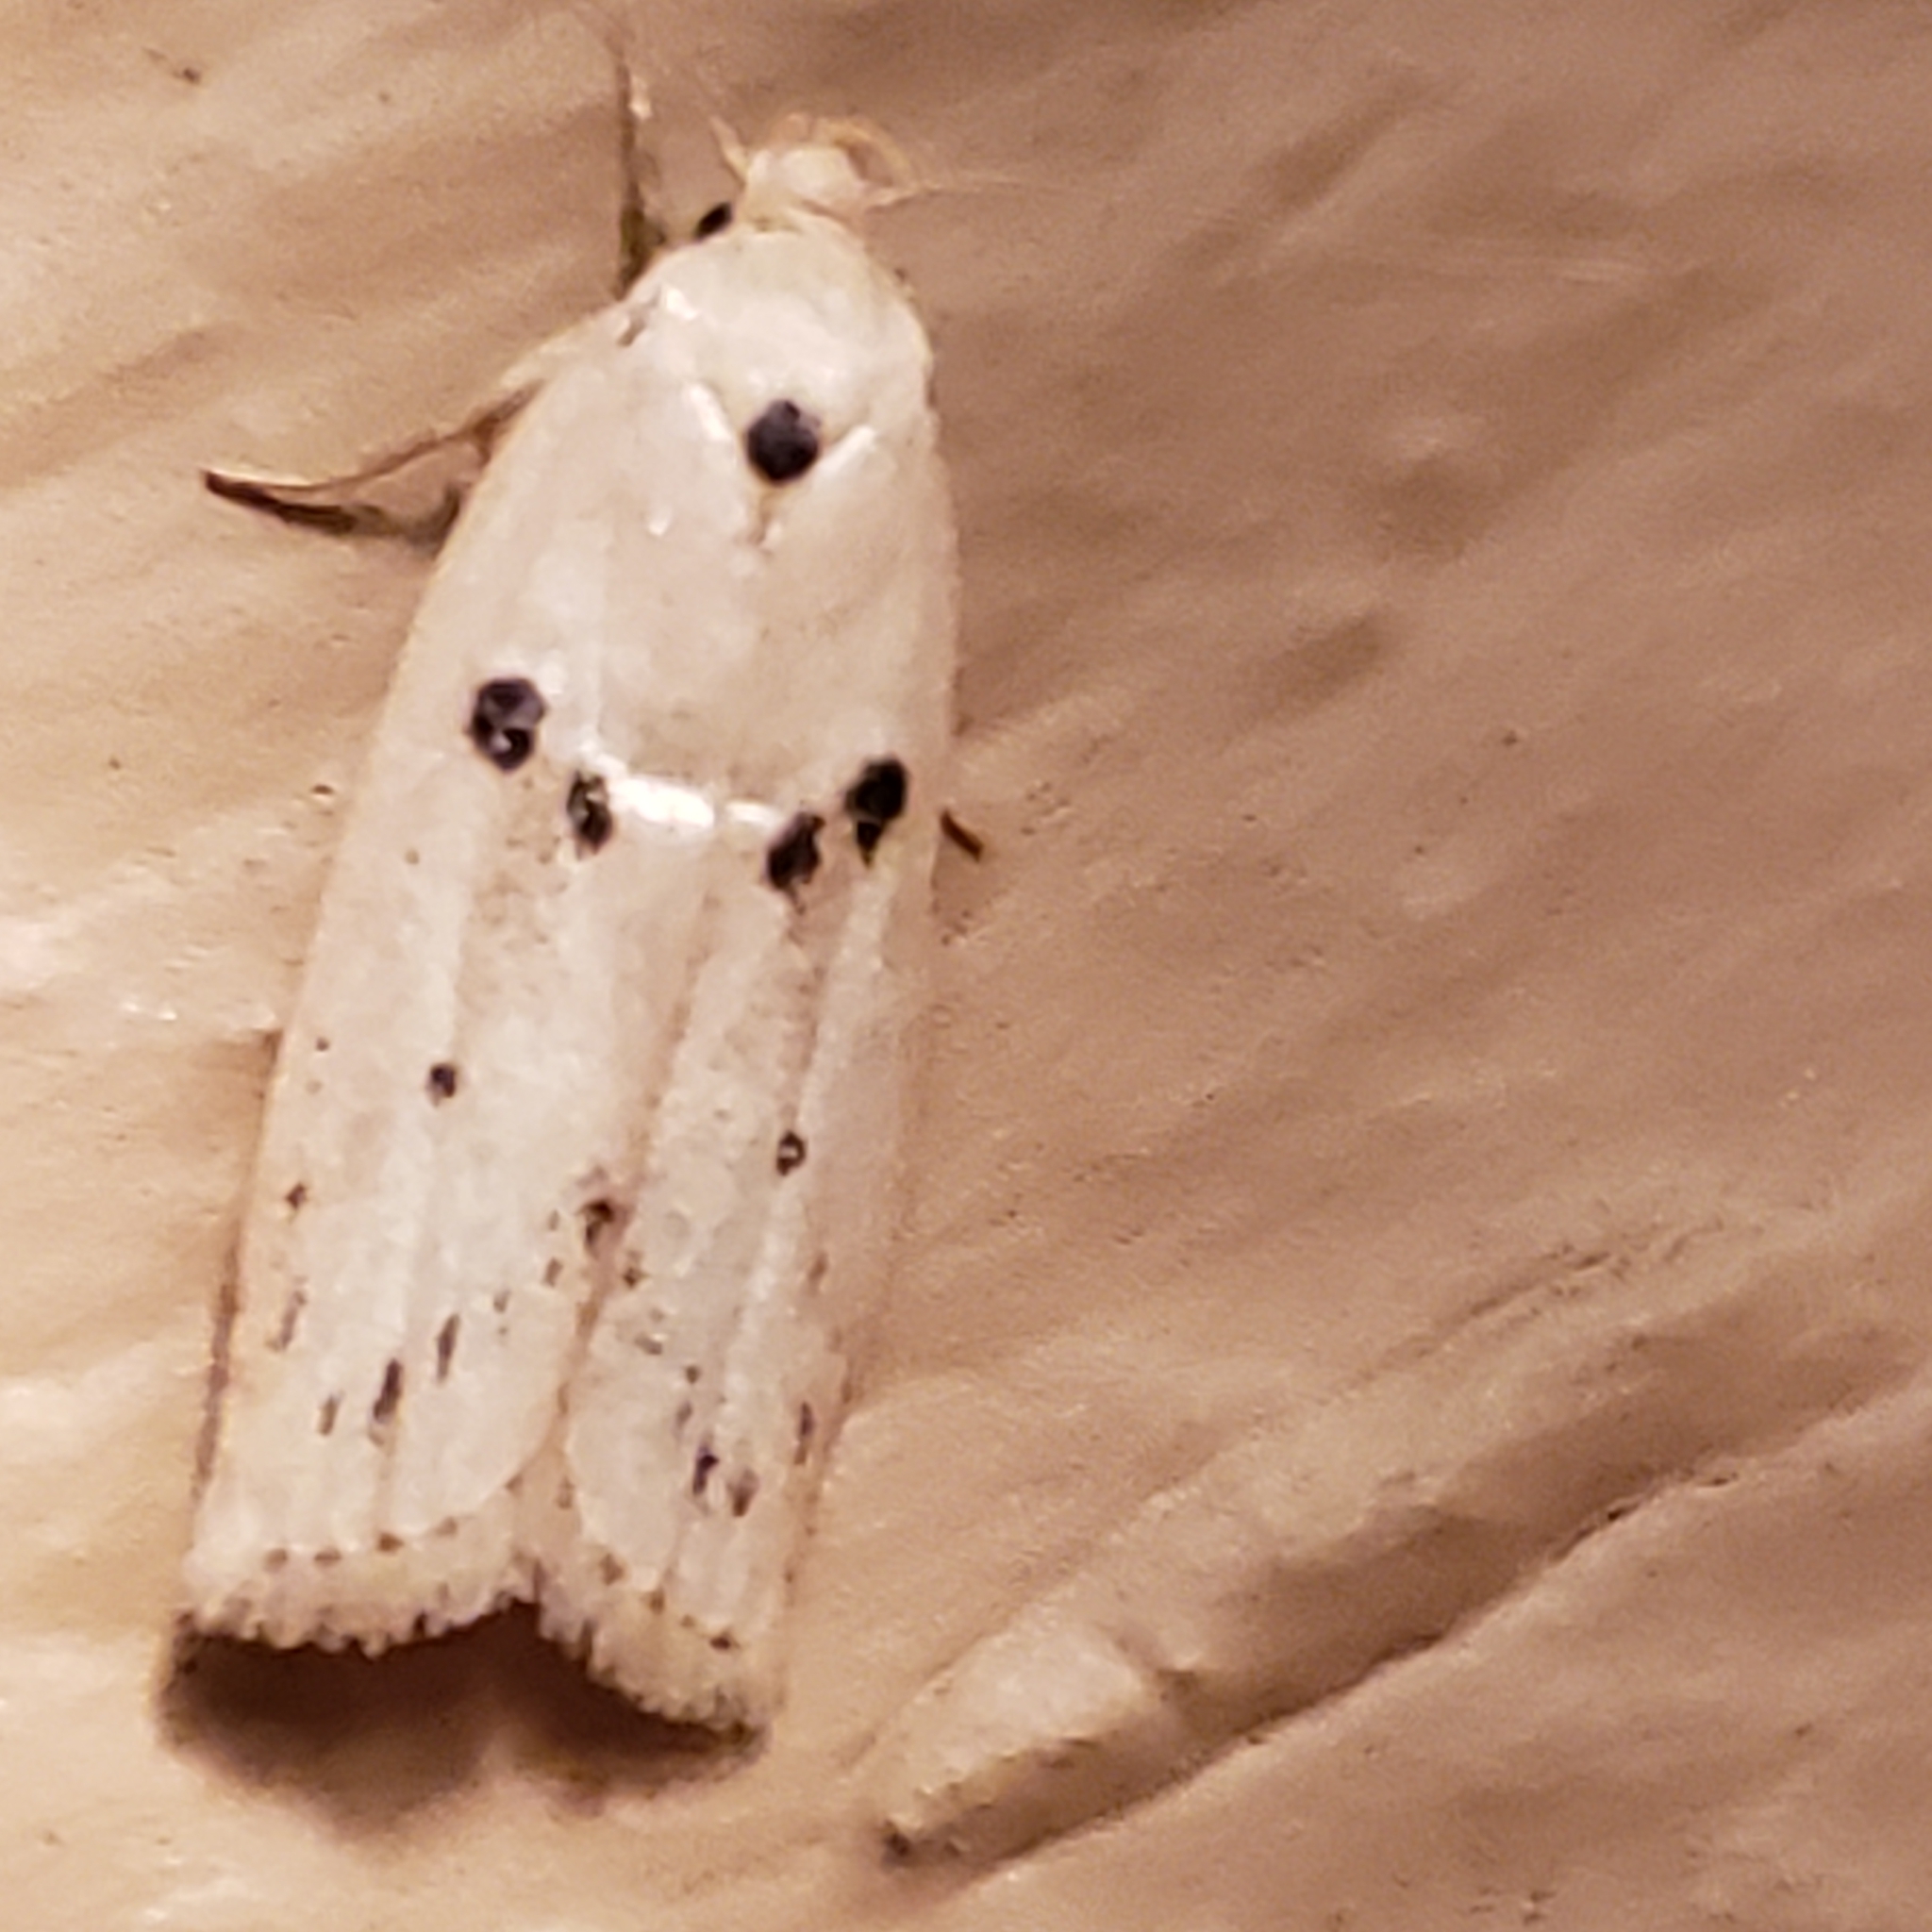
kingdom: Animalia
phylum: Arthropoda
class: Insecta
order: Lepidoptera
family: Peleopodidae
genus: Scythropiodes
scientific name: Scythropiodes issikii
